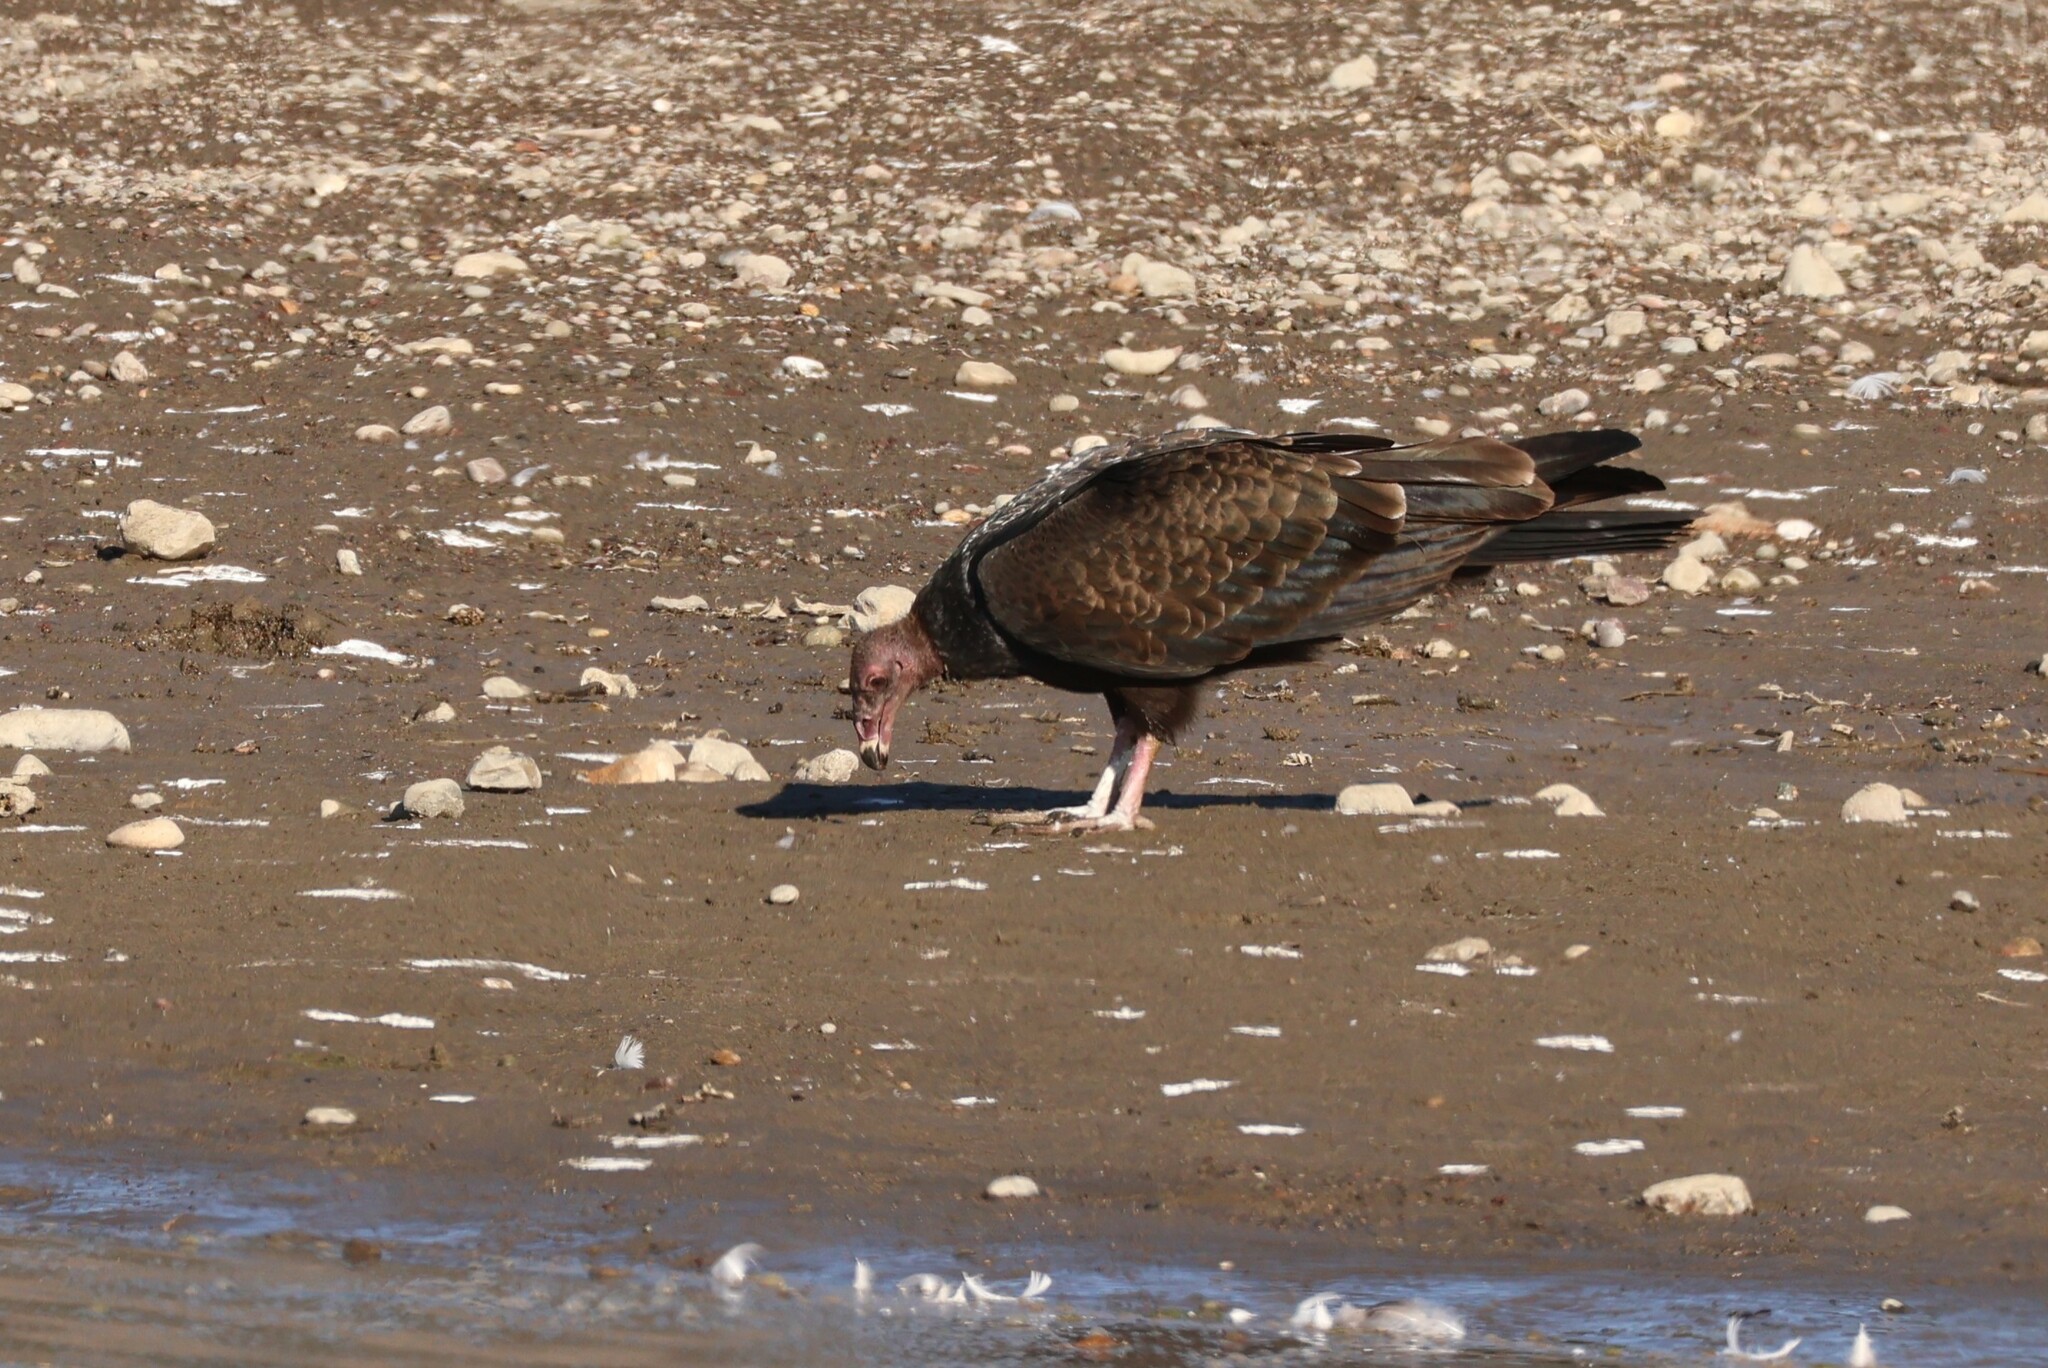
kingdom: Animalia
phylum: Chordata
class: Aves
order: Accipitriformes
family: Cathartidae
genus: Cathartes
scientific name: Cathartes aura
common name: Turkey vulture
